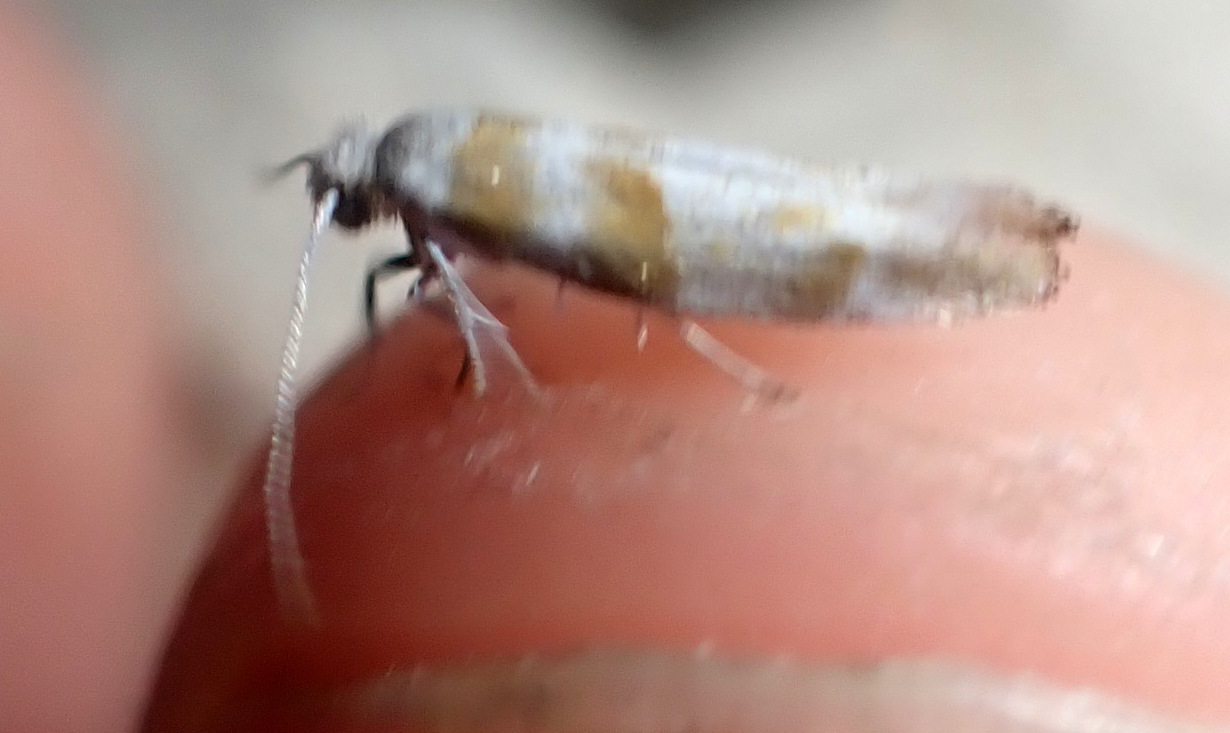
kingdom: Animalia
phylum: Arthropoda
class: Insecta
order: Lepidoptera
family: Yponomeutidae
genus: Cedestis
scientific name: Cedestis gysseleniella
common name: Gold pine ermel
